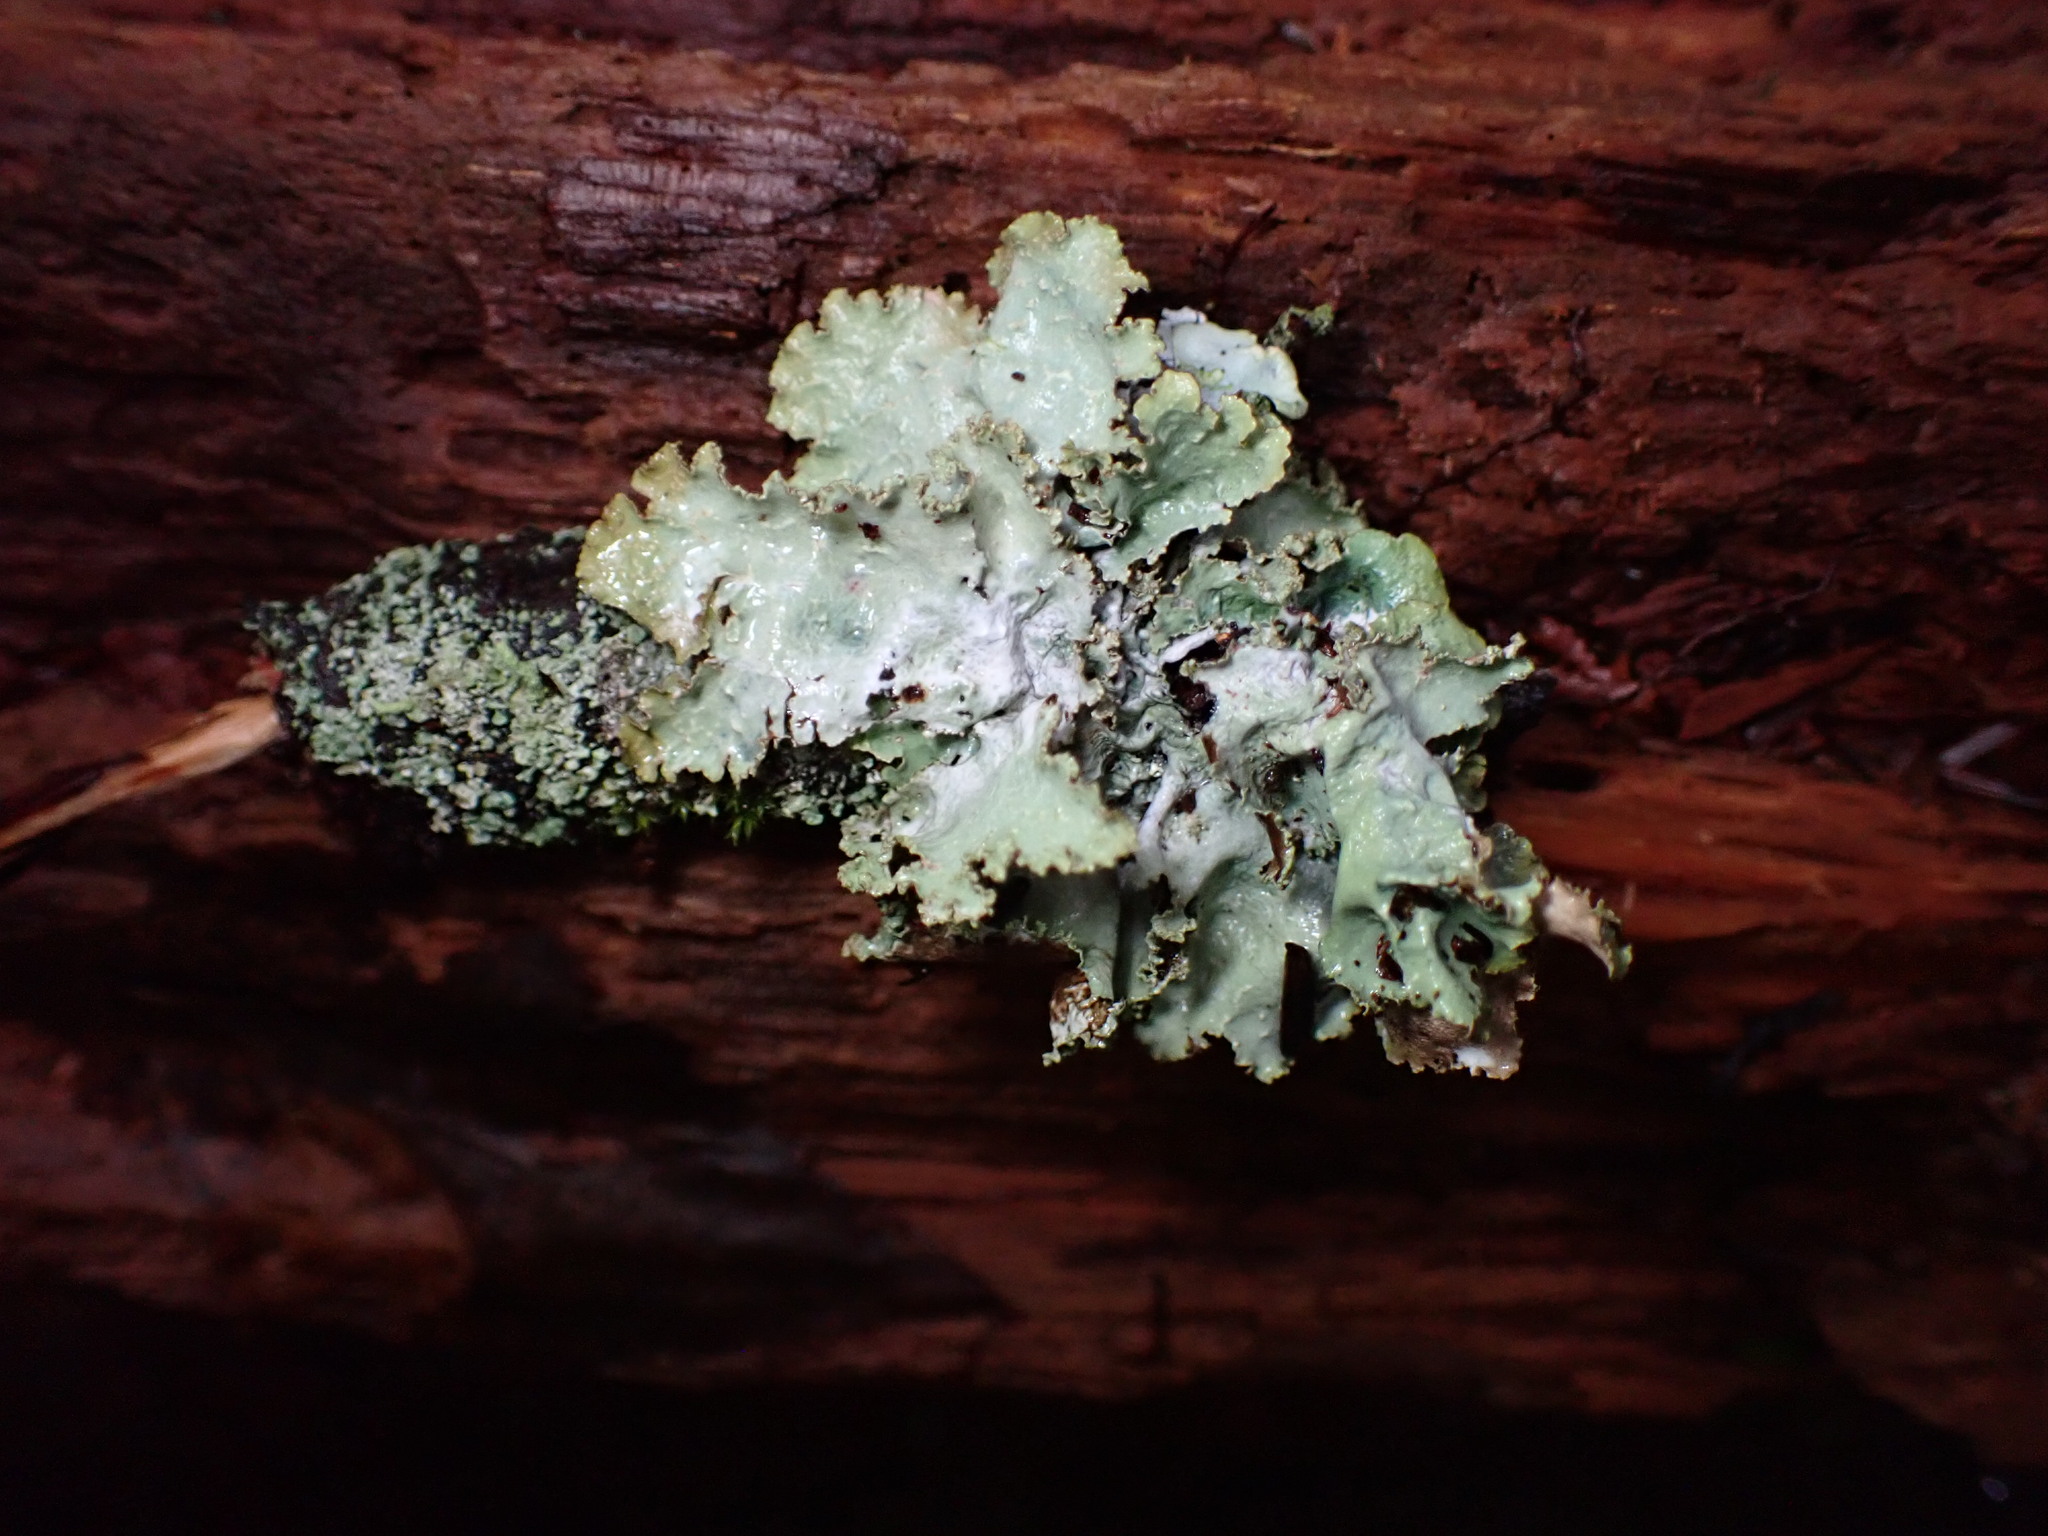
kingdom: Fungi
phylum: Ascomycota
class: Lecanoromycetes
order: Lecanorales
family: Parmeliaceae
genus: Platismatia
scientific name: Platismatia glauca
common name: Varied rag lichen
